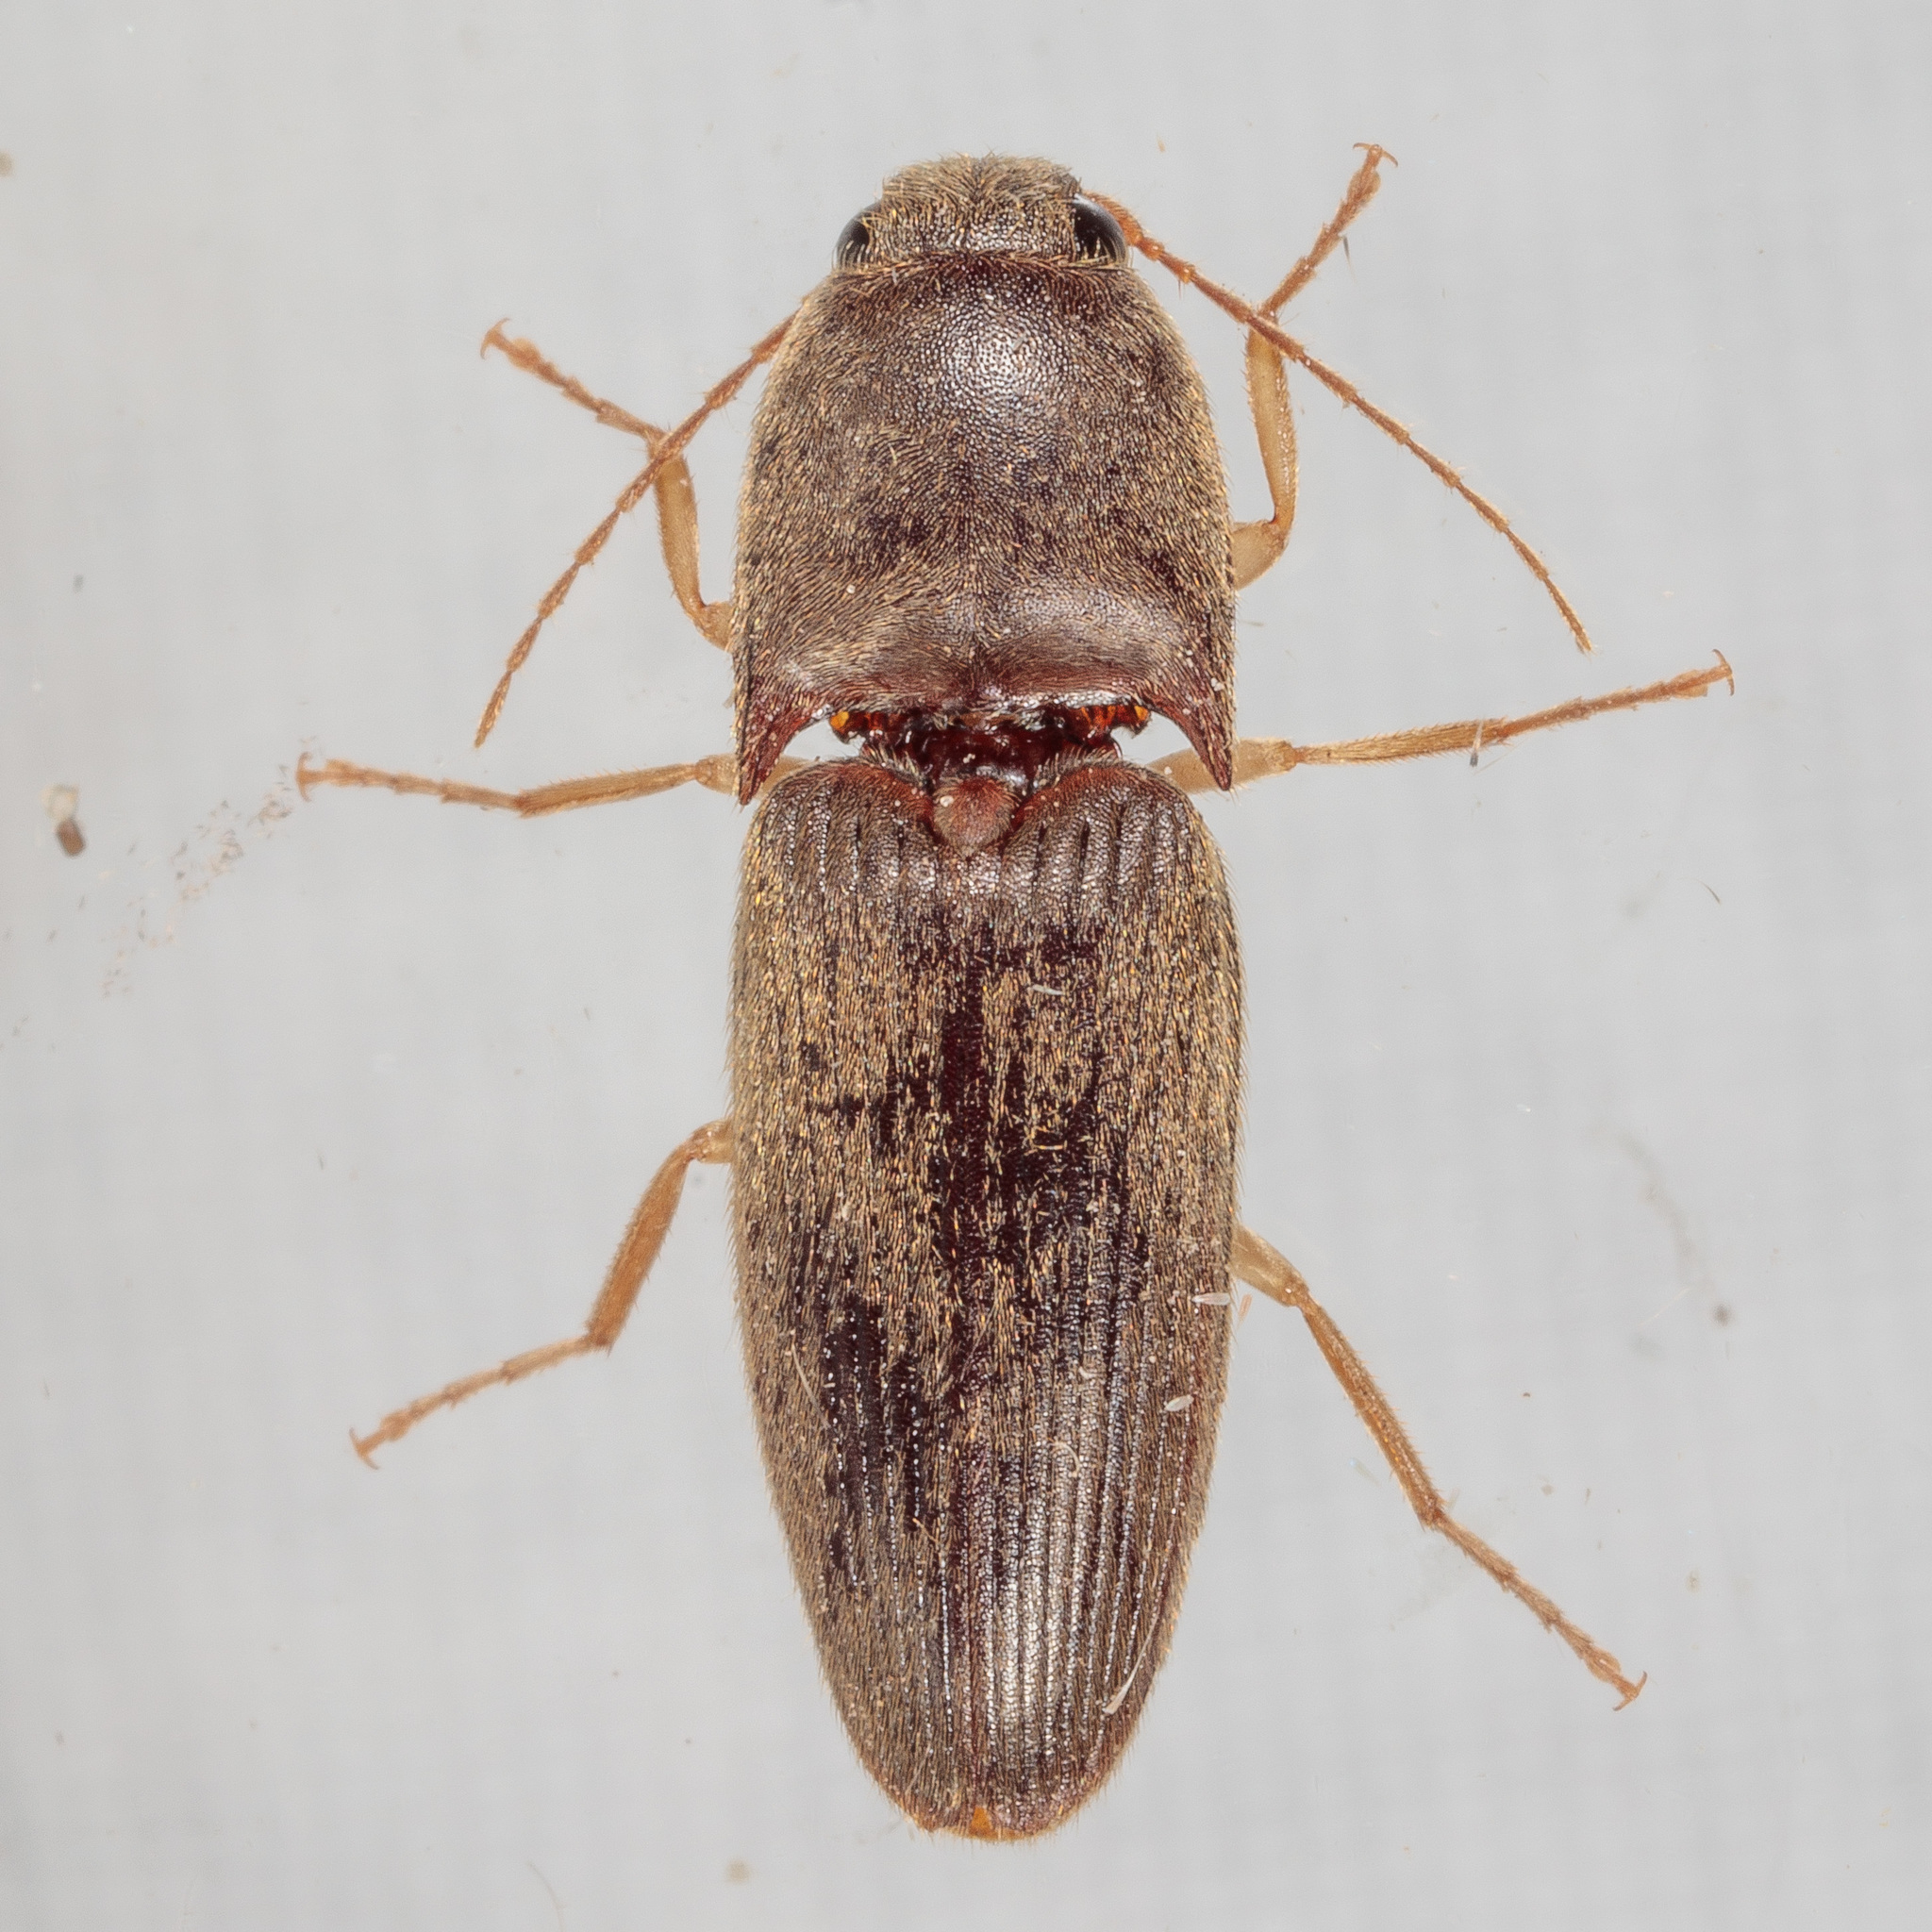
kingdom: Animalia
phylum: Arthropoda
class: Insecta
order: Coleoptera
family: Elateridae
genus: Conoderus
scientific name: Conoderus exsul
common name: Click beetle
